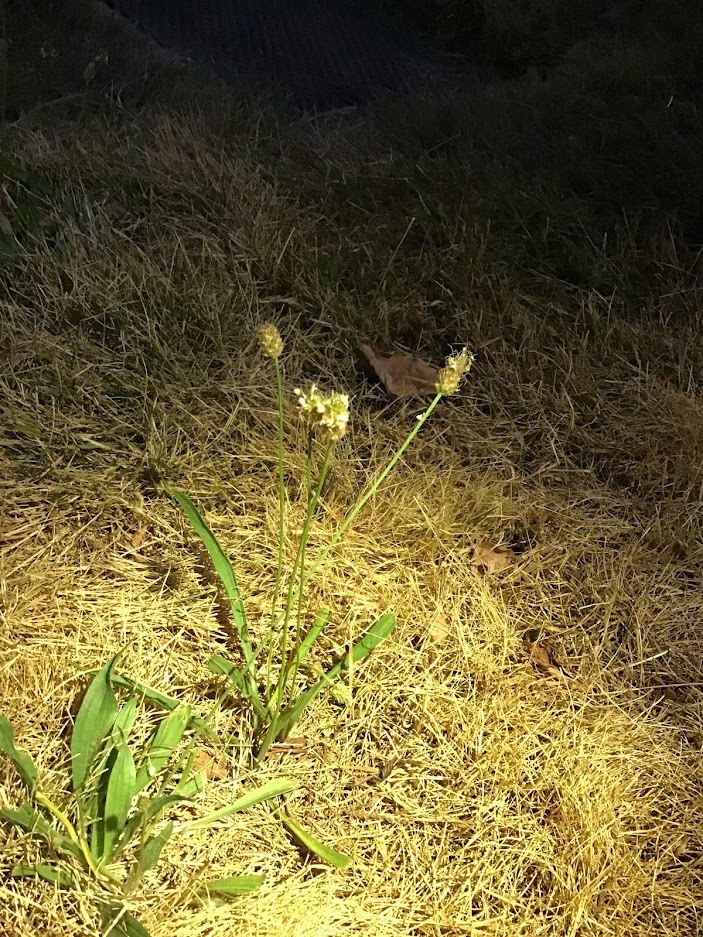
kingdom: Plantae
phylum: Tracheophyta
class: Magnoliopsida
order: Lamiales
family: Plantaginaceae
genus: Plantago
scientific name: Plantago lanceolata
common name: Ribwort plantain
